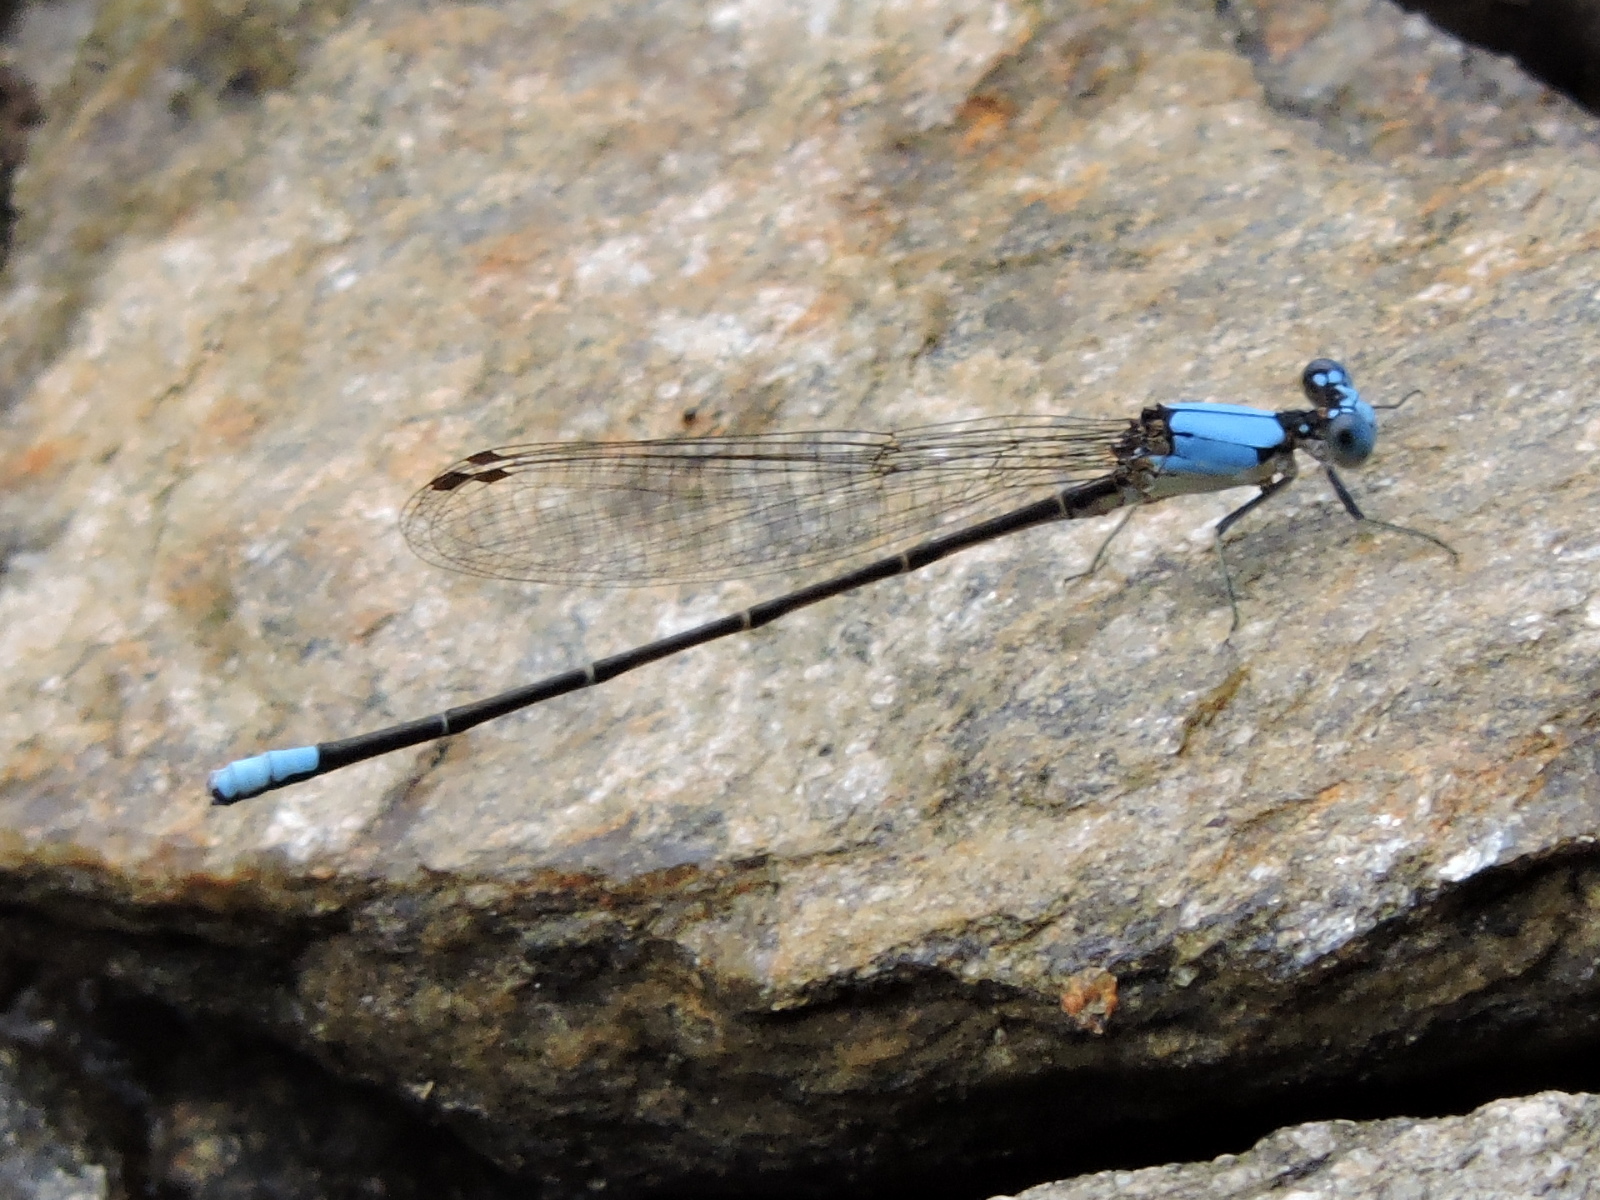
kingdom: Animalia
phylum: Arthropoda
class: Insecta
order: Odonata
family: Coenagrionidae
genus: Argia
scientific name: Argia apicalis
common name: Blue-fronted dancer
